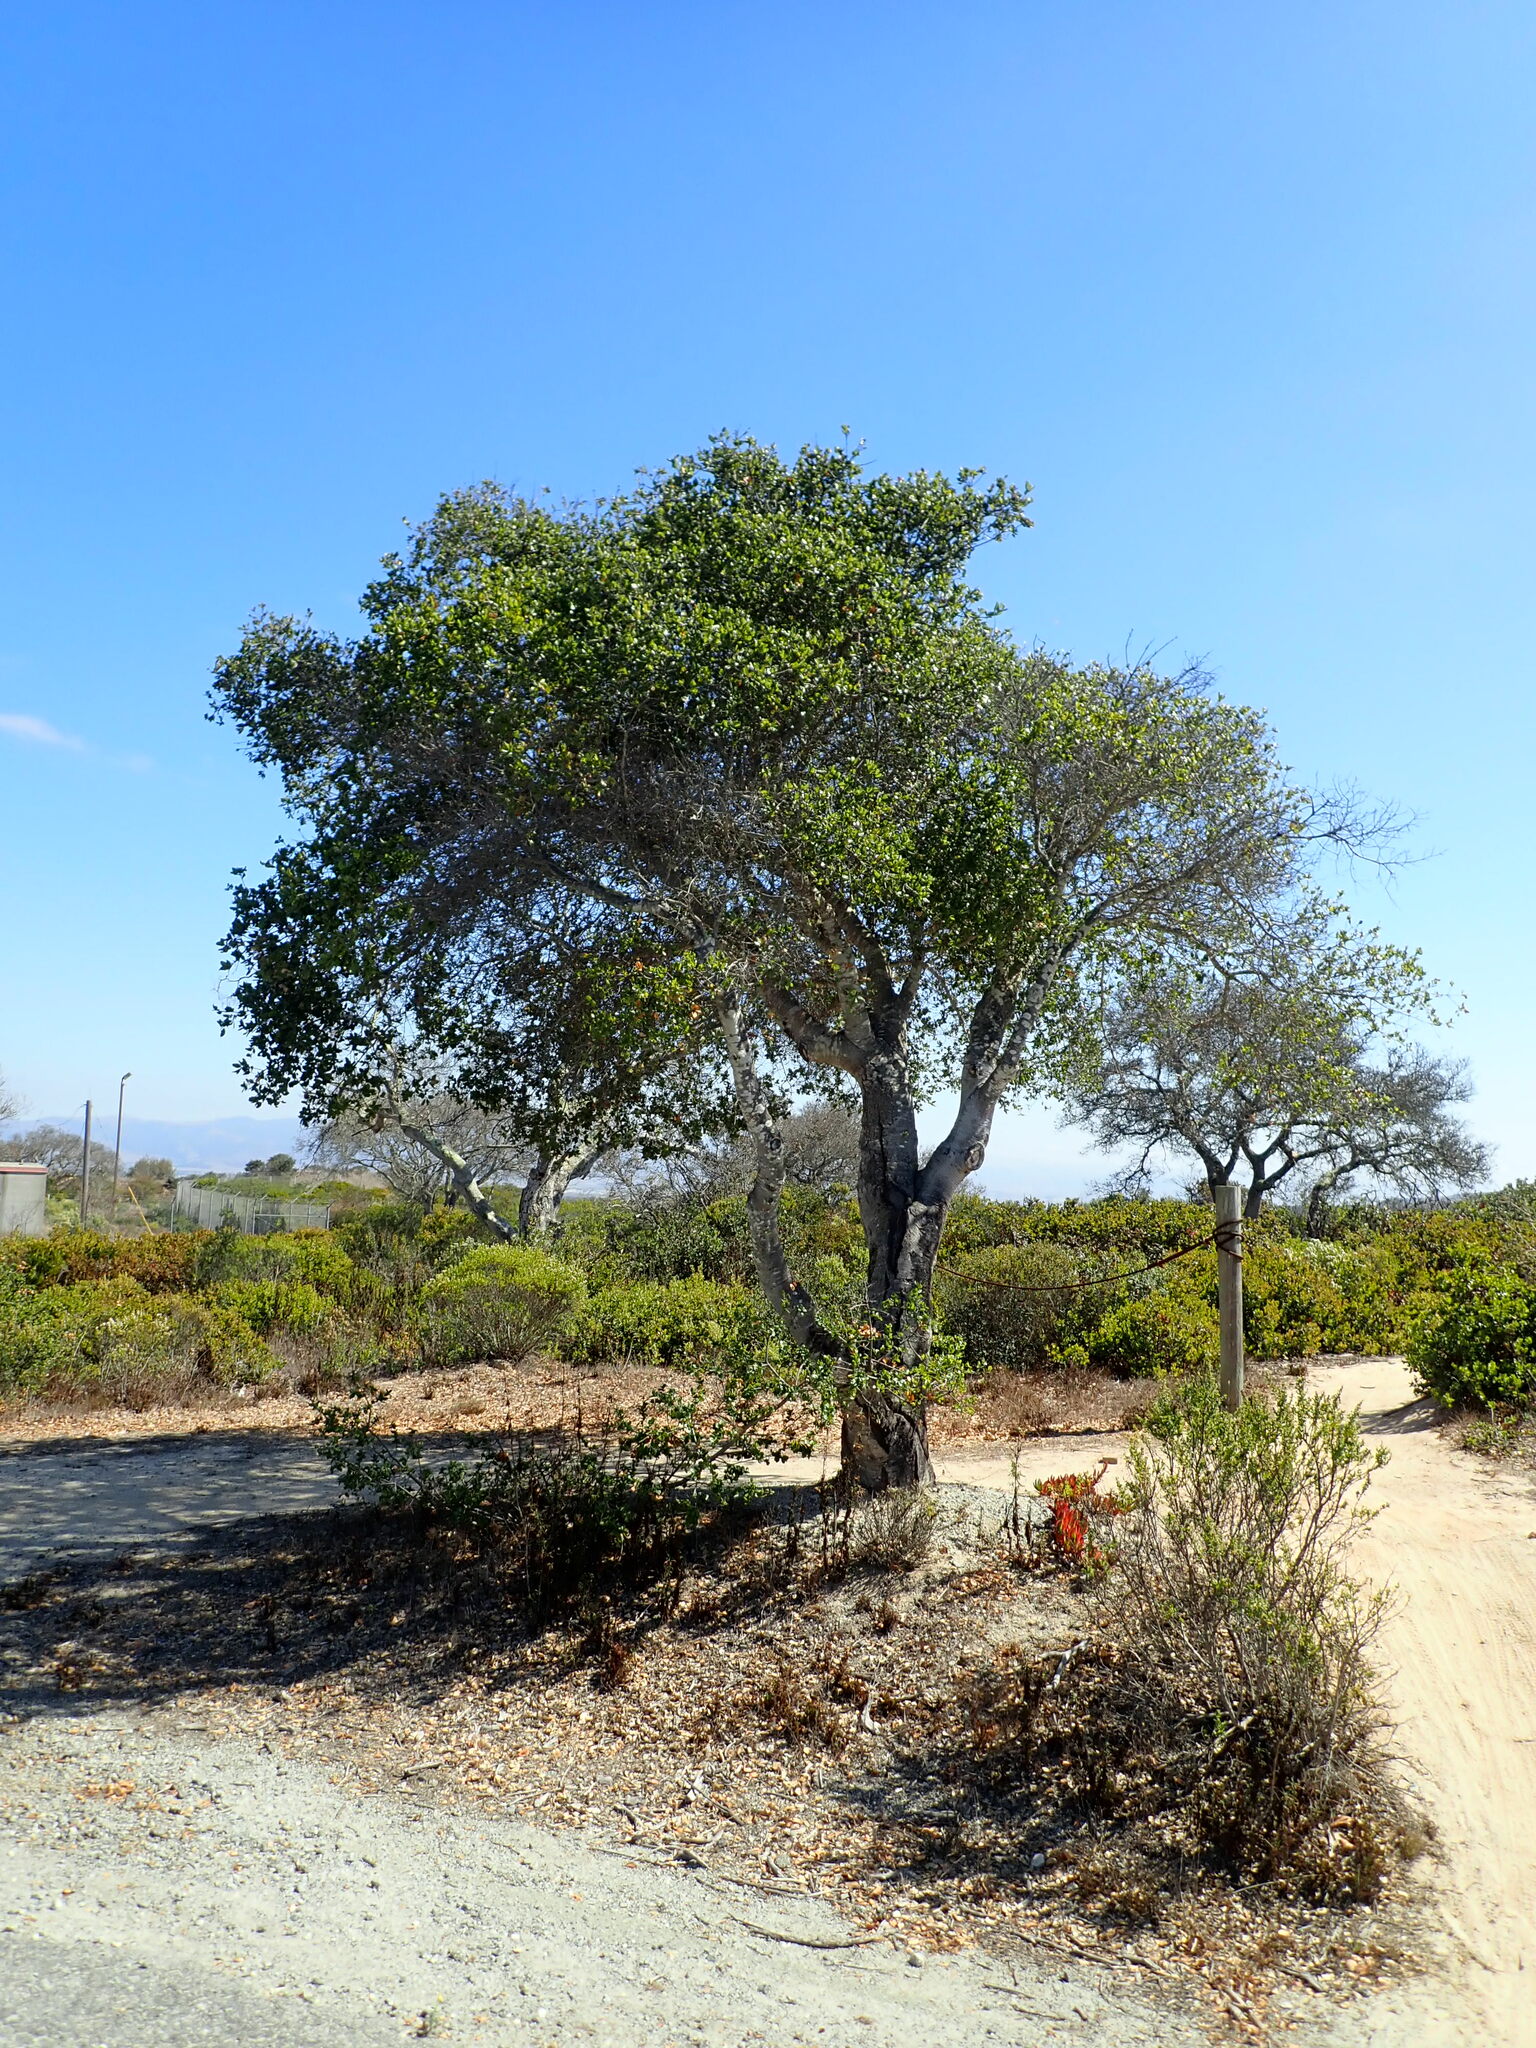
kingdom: Plantae
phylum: Tracheophyta
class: Magnoliopsida
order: Fagales
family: Fagaceae
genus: Quercus
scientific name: Quercus agrifolia
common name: California live oak
